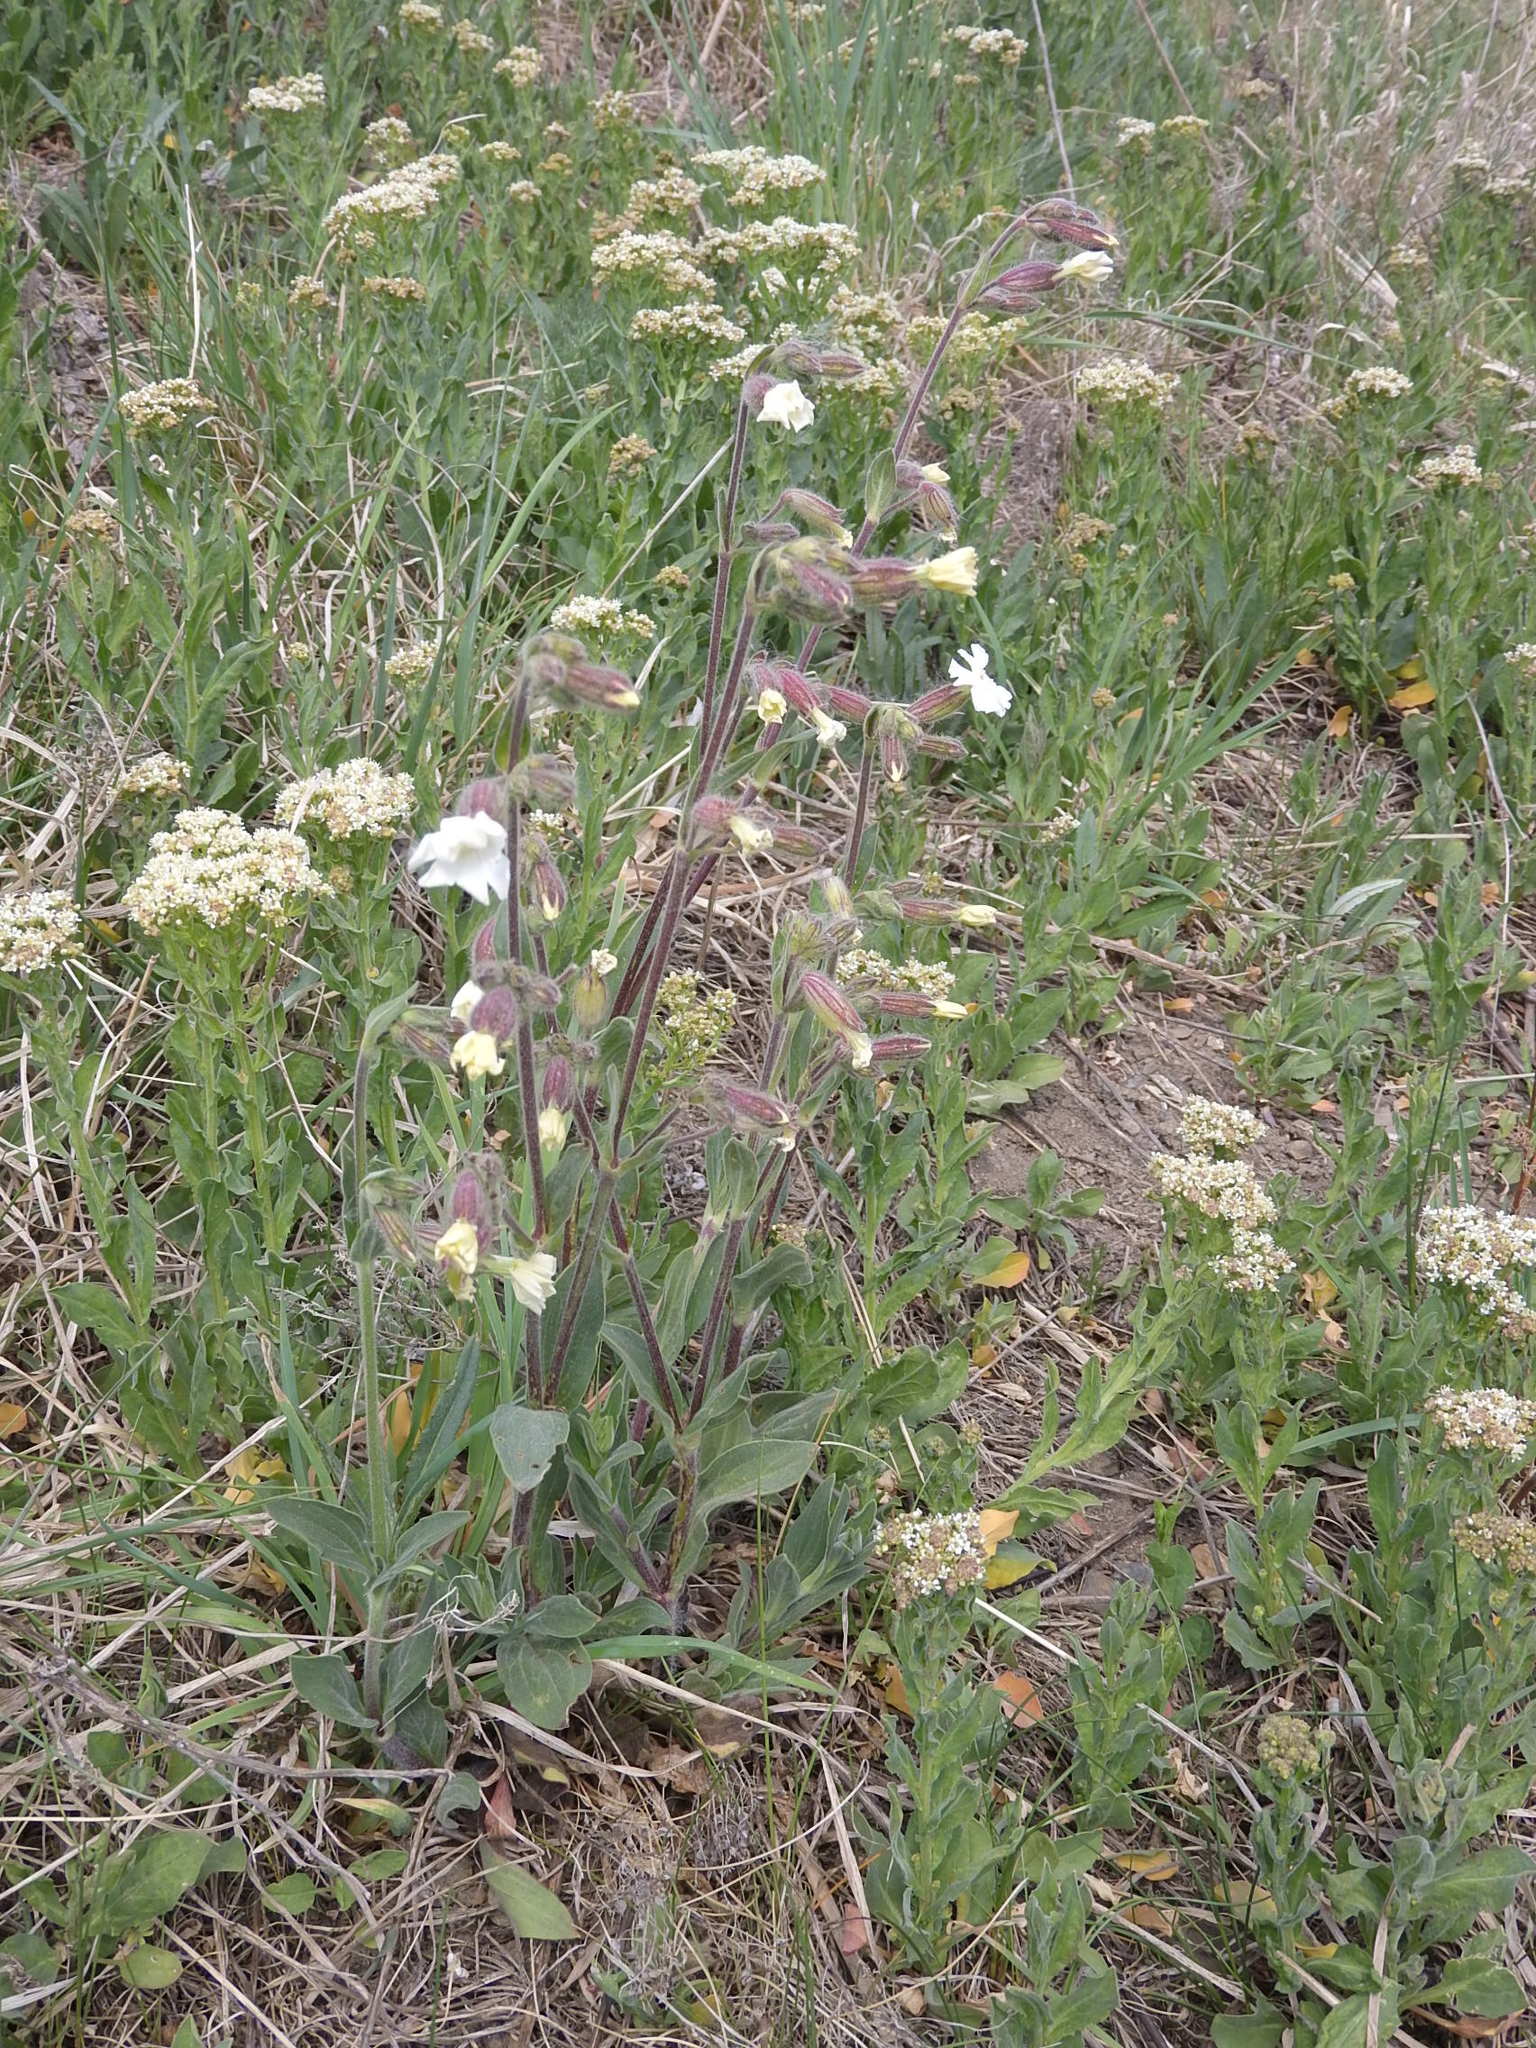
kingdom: Plantae
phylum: Tracheophyta
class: Magnoliopsida
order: Caryophyllales
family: Caryophyllaceae
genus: Silene
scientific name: Silene latifolia
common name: White campion
